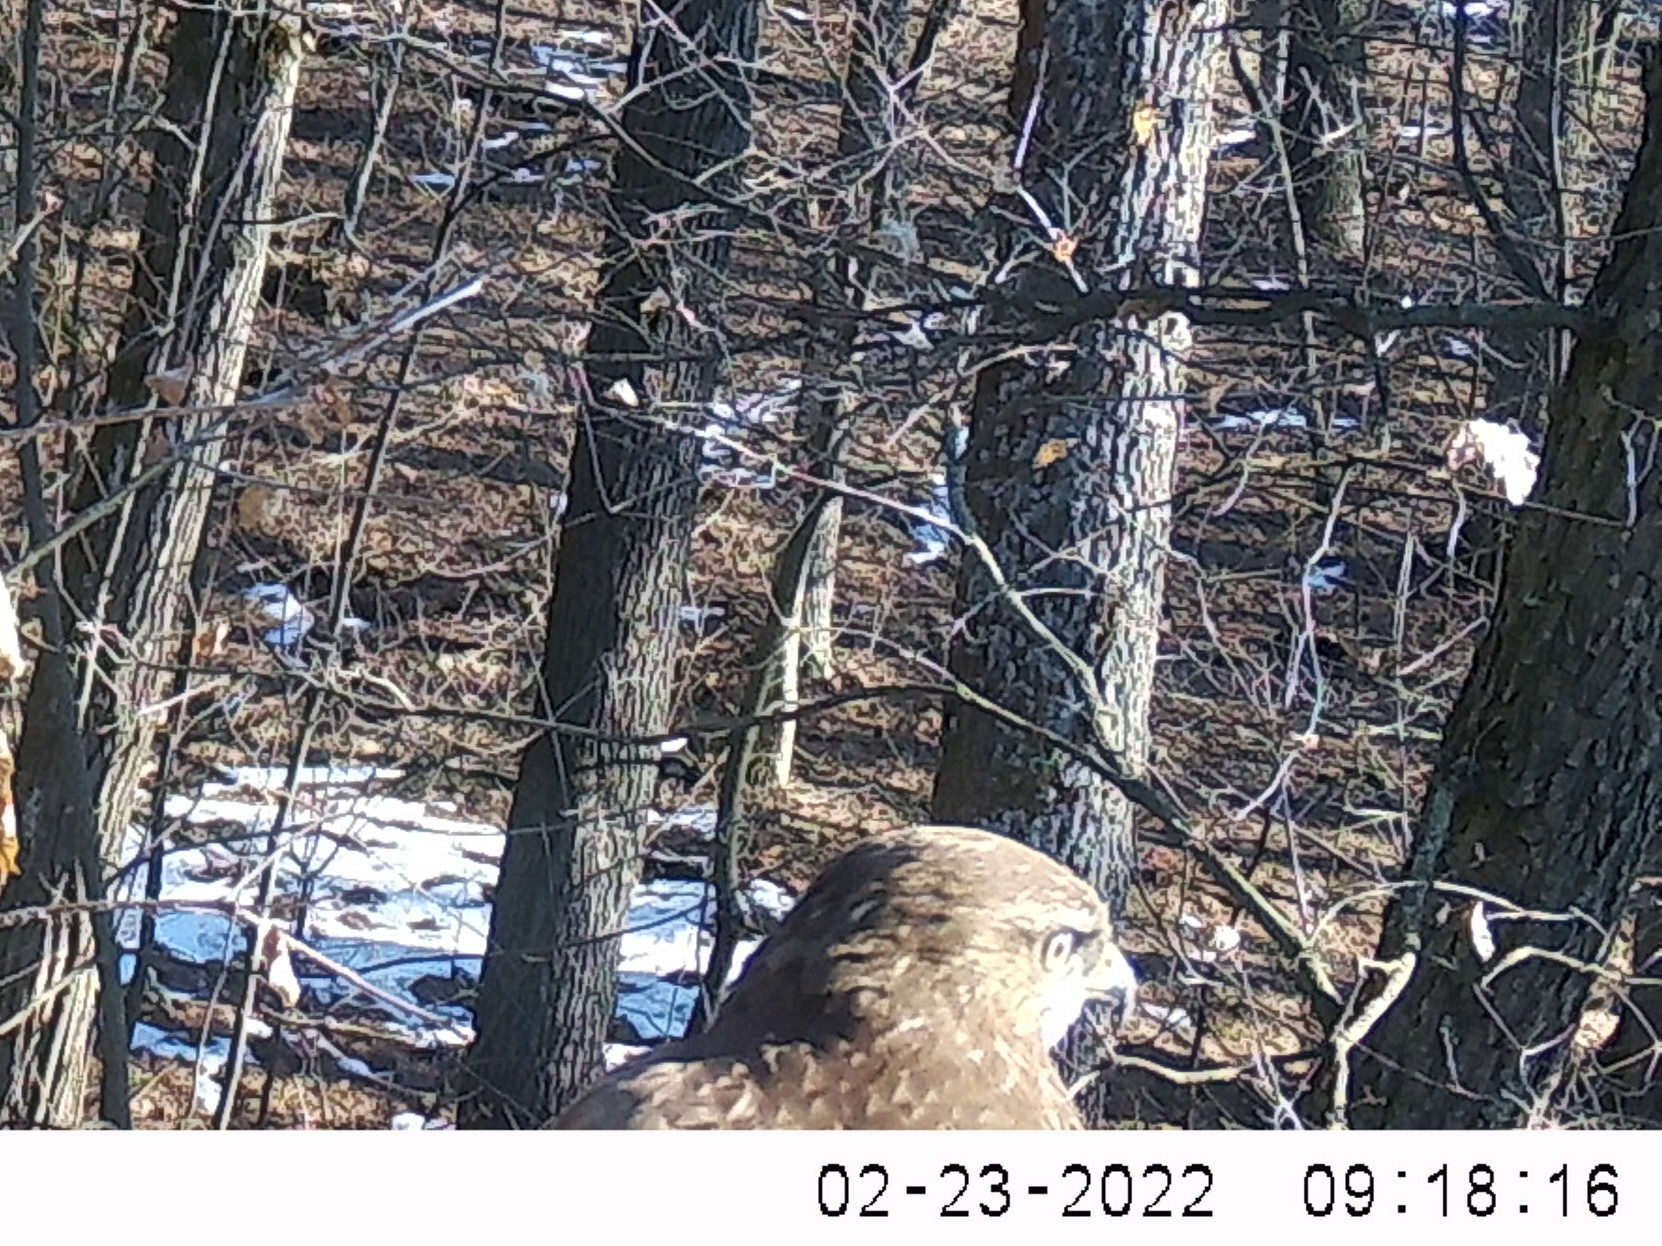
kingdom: Animalia
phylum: Chordata
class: Aves
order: Accipitriformes
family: Accipitridae
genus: Buteo
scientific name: Buteo buteo
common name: Common buzzard
